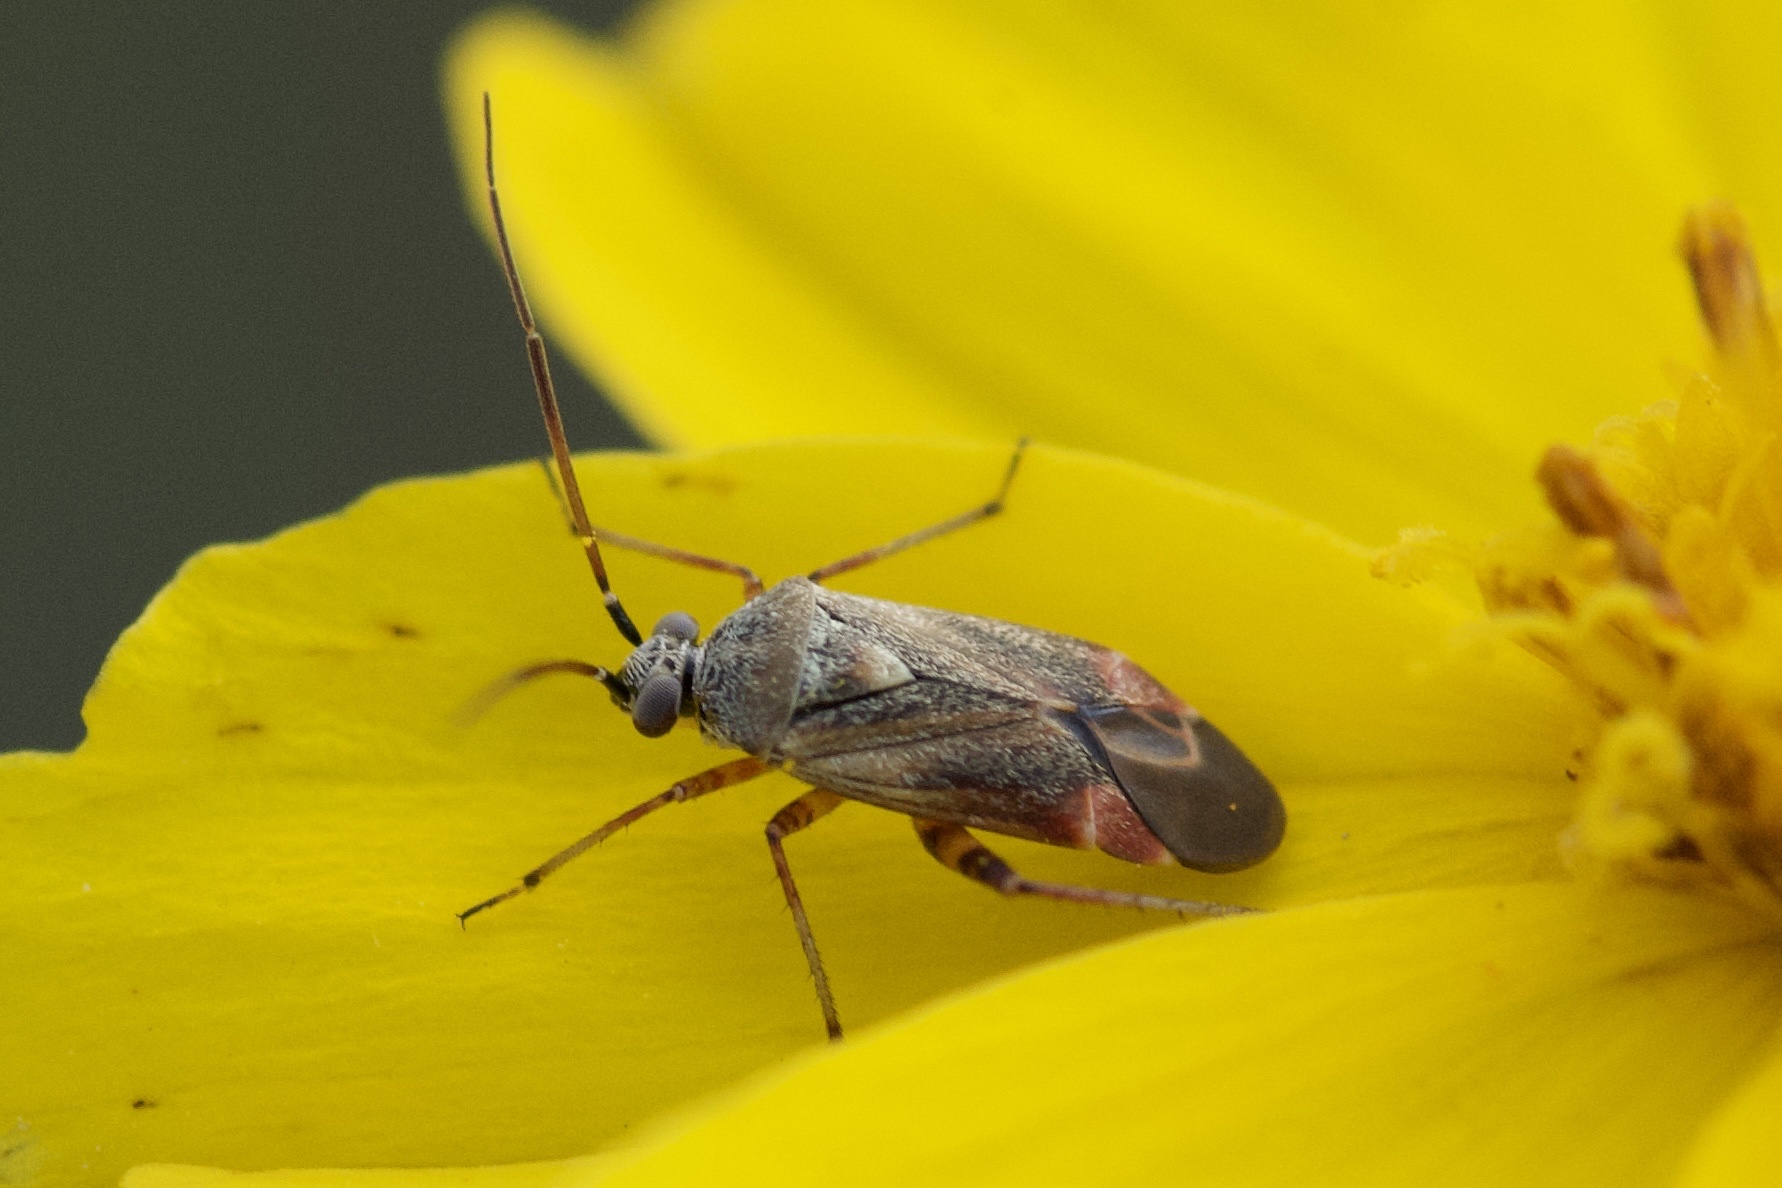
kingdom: Animalia
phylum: Arthropoda
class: Insecta
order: Hemiptera
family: Miridae
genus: Polymerus
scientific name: Polymerus basalis
